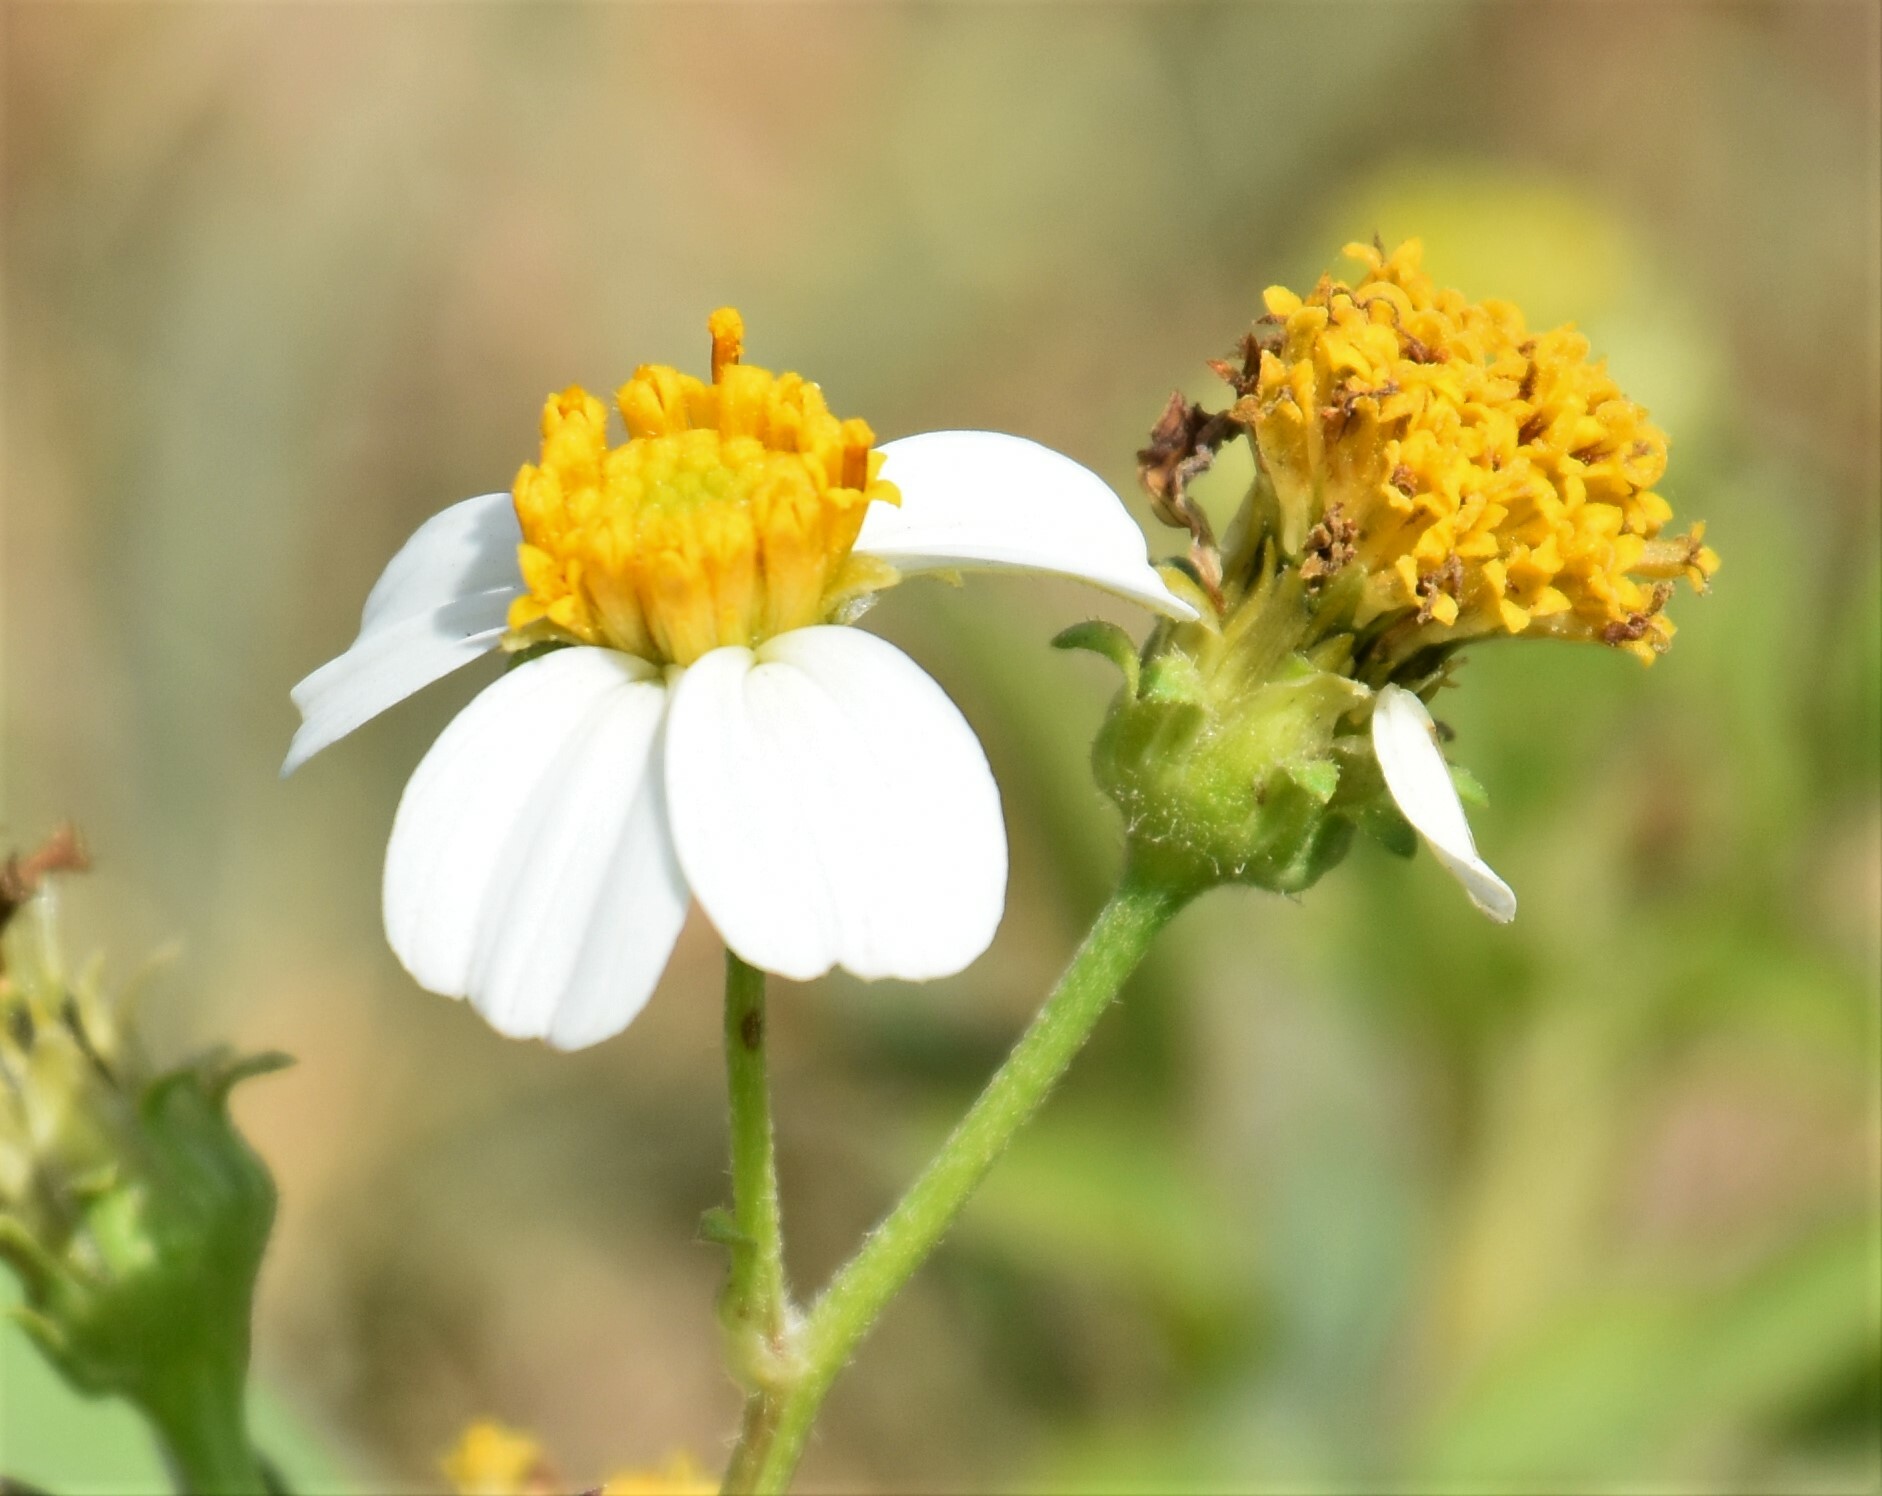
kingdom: Plantae
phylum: Tracheophyta
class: Magnoliopsida
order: Asterales
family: Asteraceae
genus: Bidens
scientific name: Bidens alba
